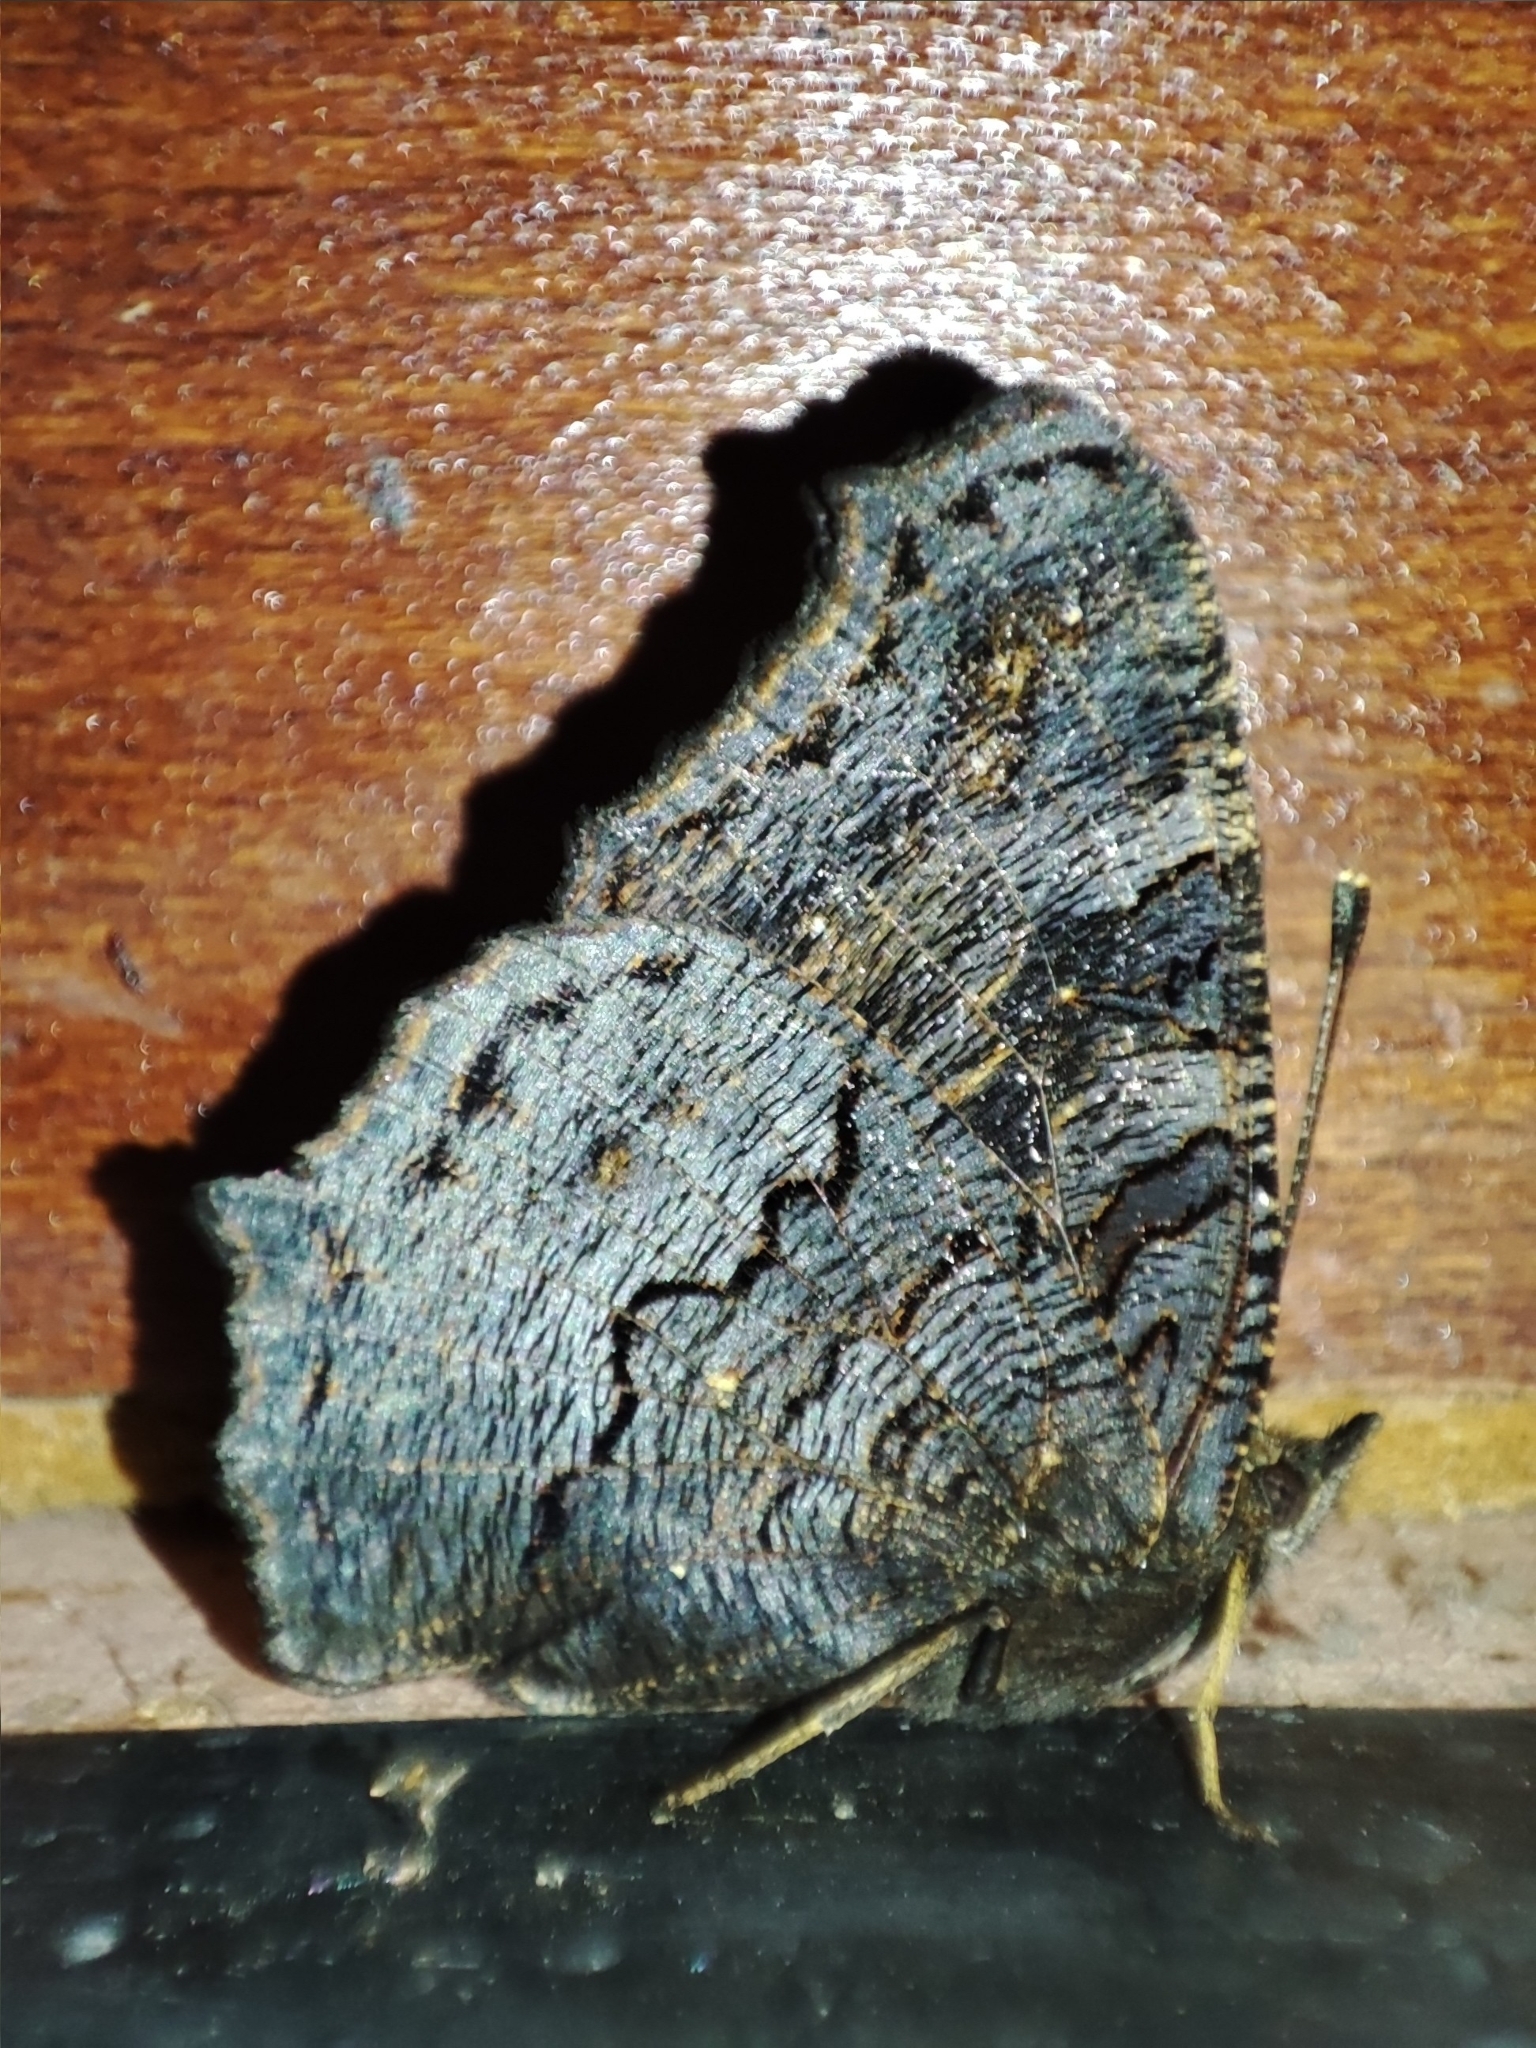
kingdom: Animalia
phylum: Arthropoda
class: Insecta
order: Lepidoptera
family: Nymphalidae
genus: Aglais
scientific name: Aglais io
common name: Peacock
